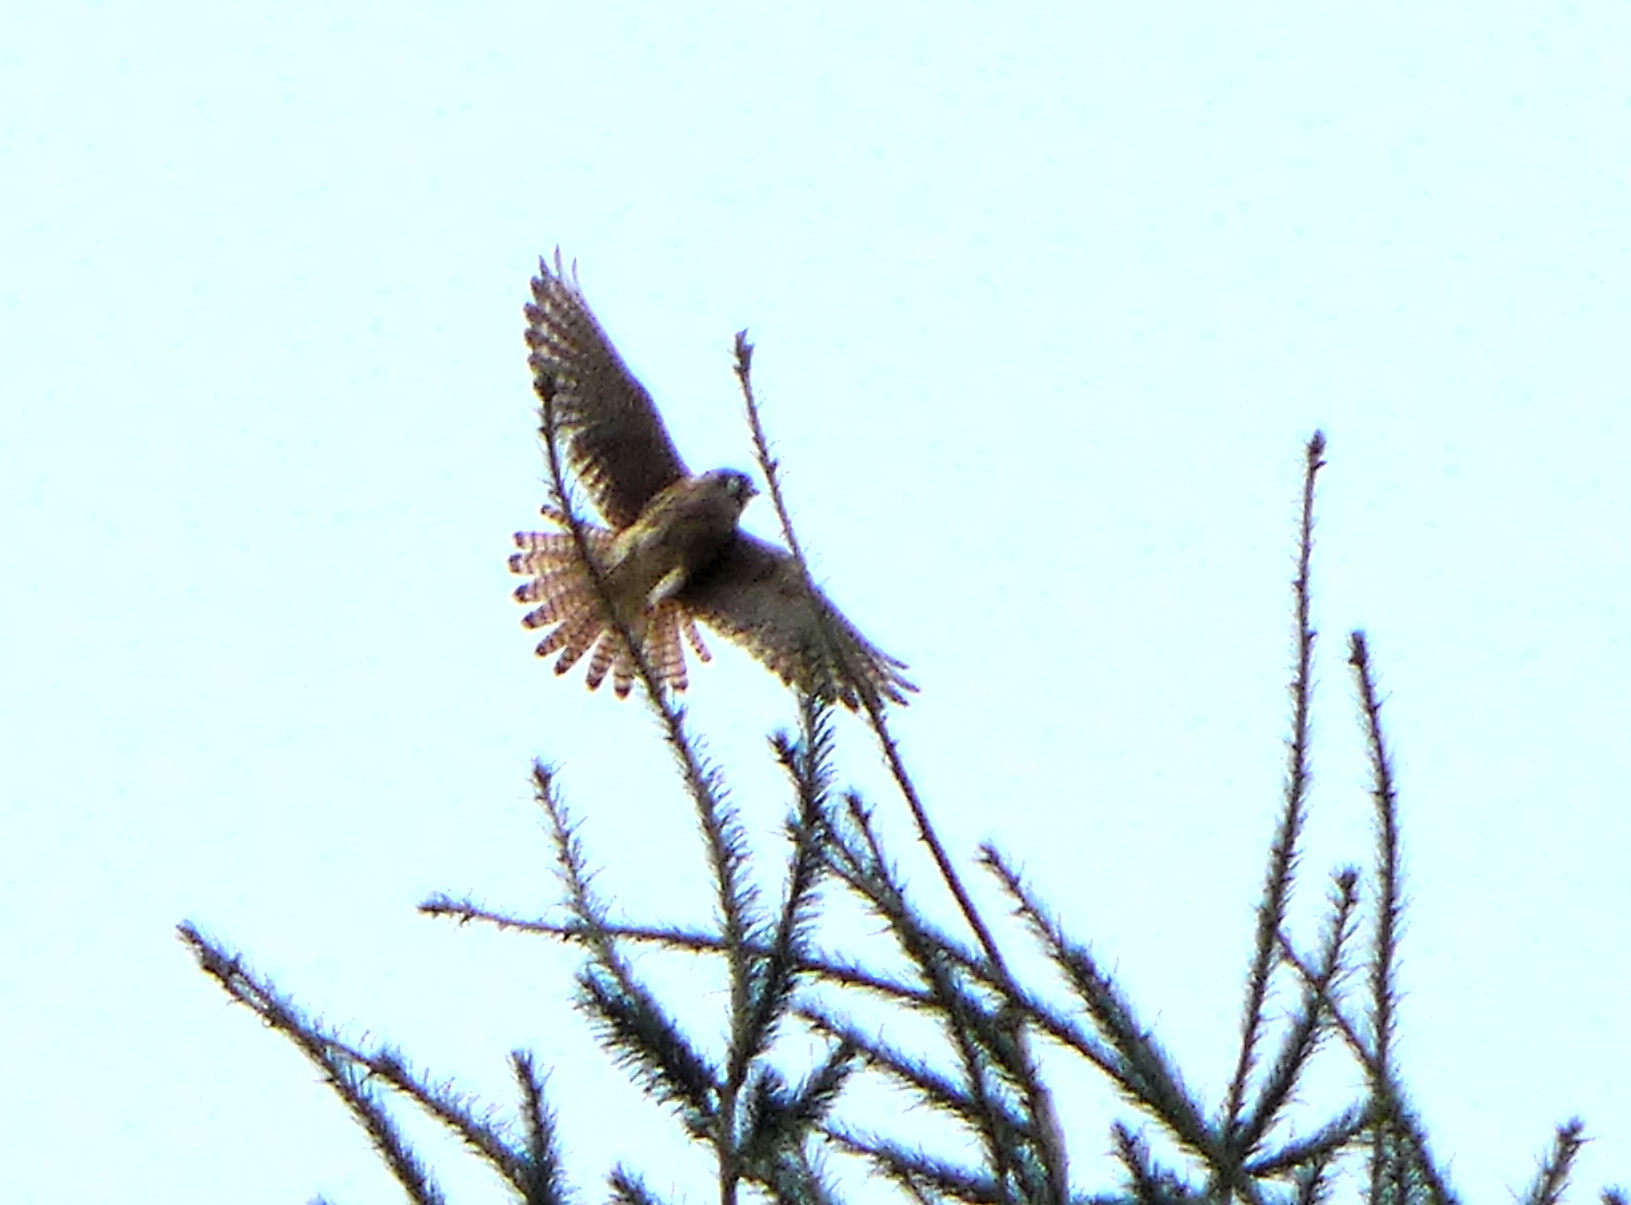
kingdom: Animalia
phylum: Chordata
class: Aves
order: Falconiformes
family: Falconidae
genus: Falco
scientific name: Falco sparverius
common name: American kestrel
